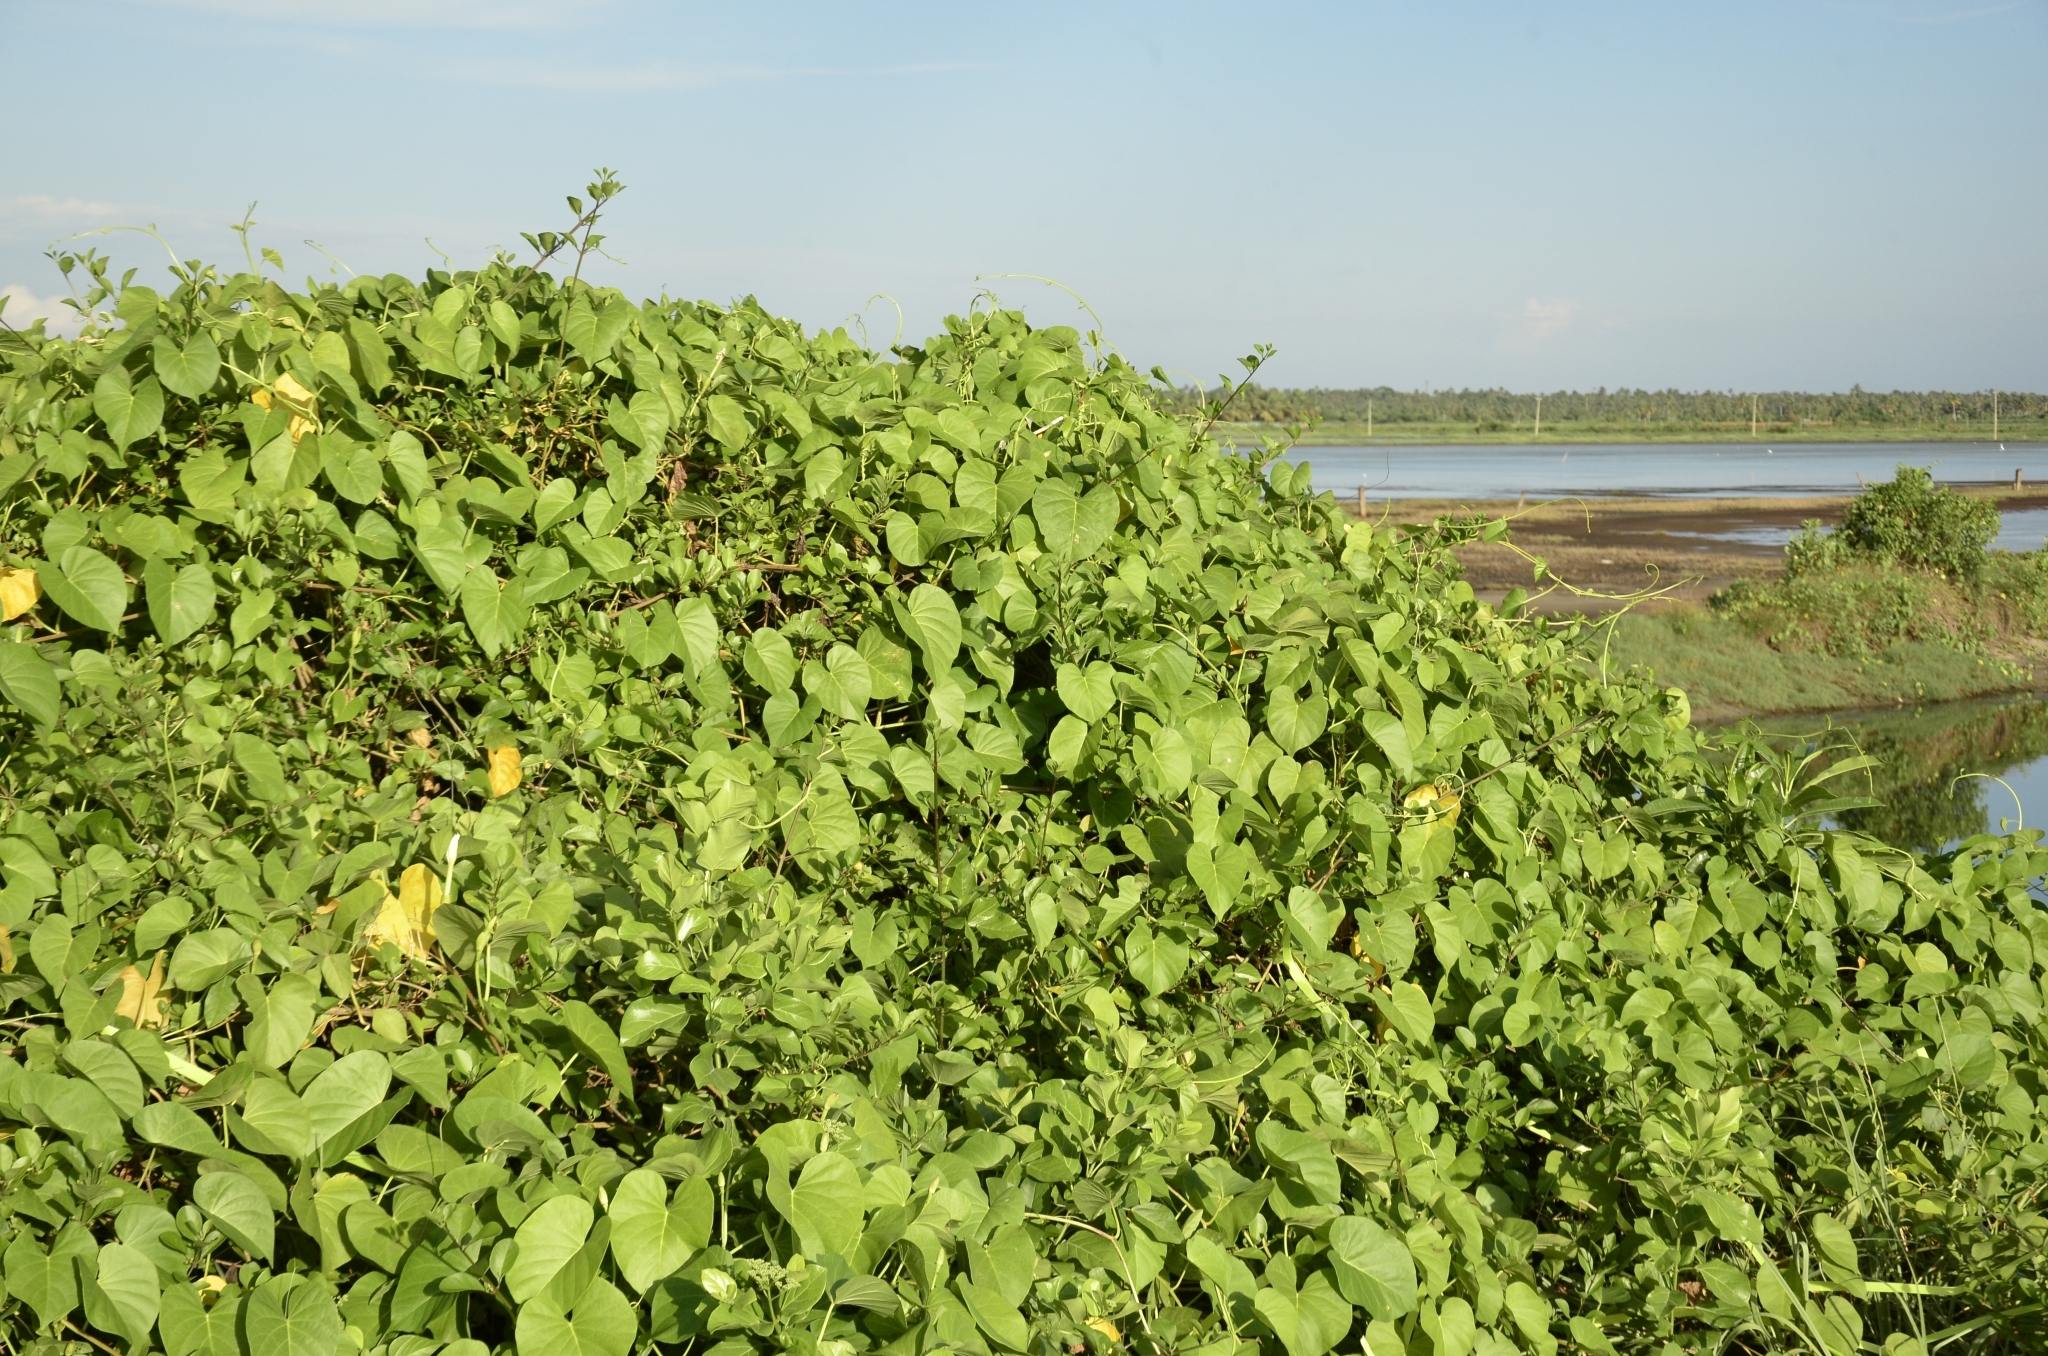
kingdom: Plantae
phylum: Tracheophyta
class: Magnoliopsida
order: Solanales
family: Convolvulaceae
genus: Ipomoea
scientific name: Ipomoea violacea
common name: Beach moonflower
